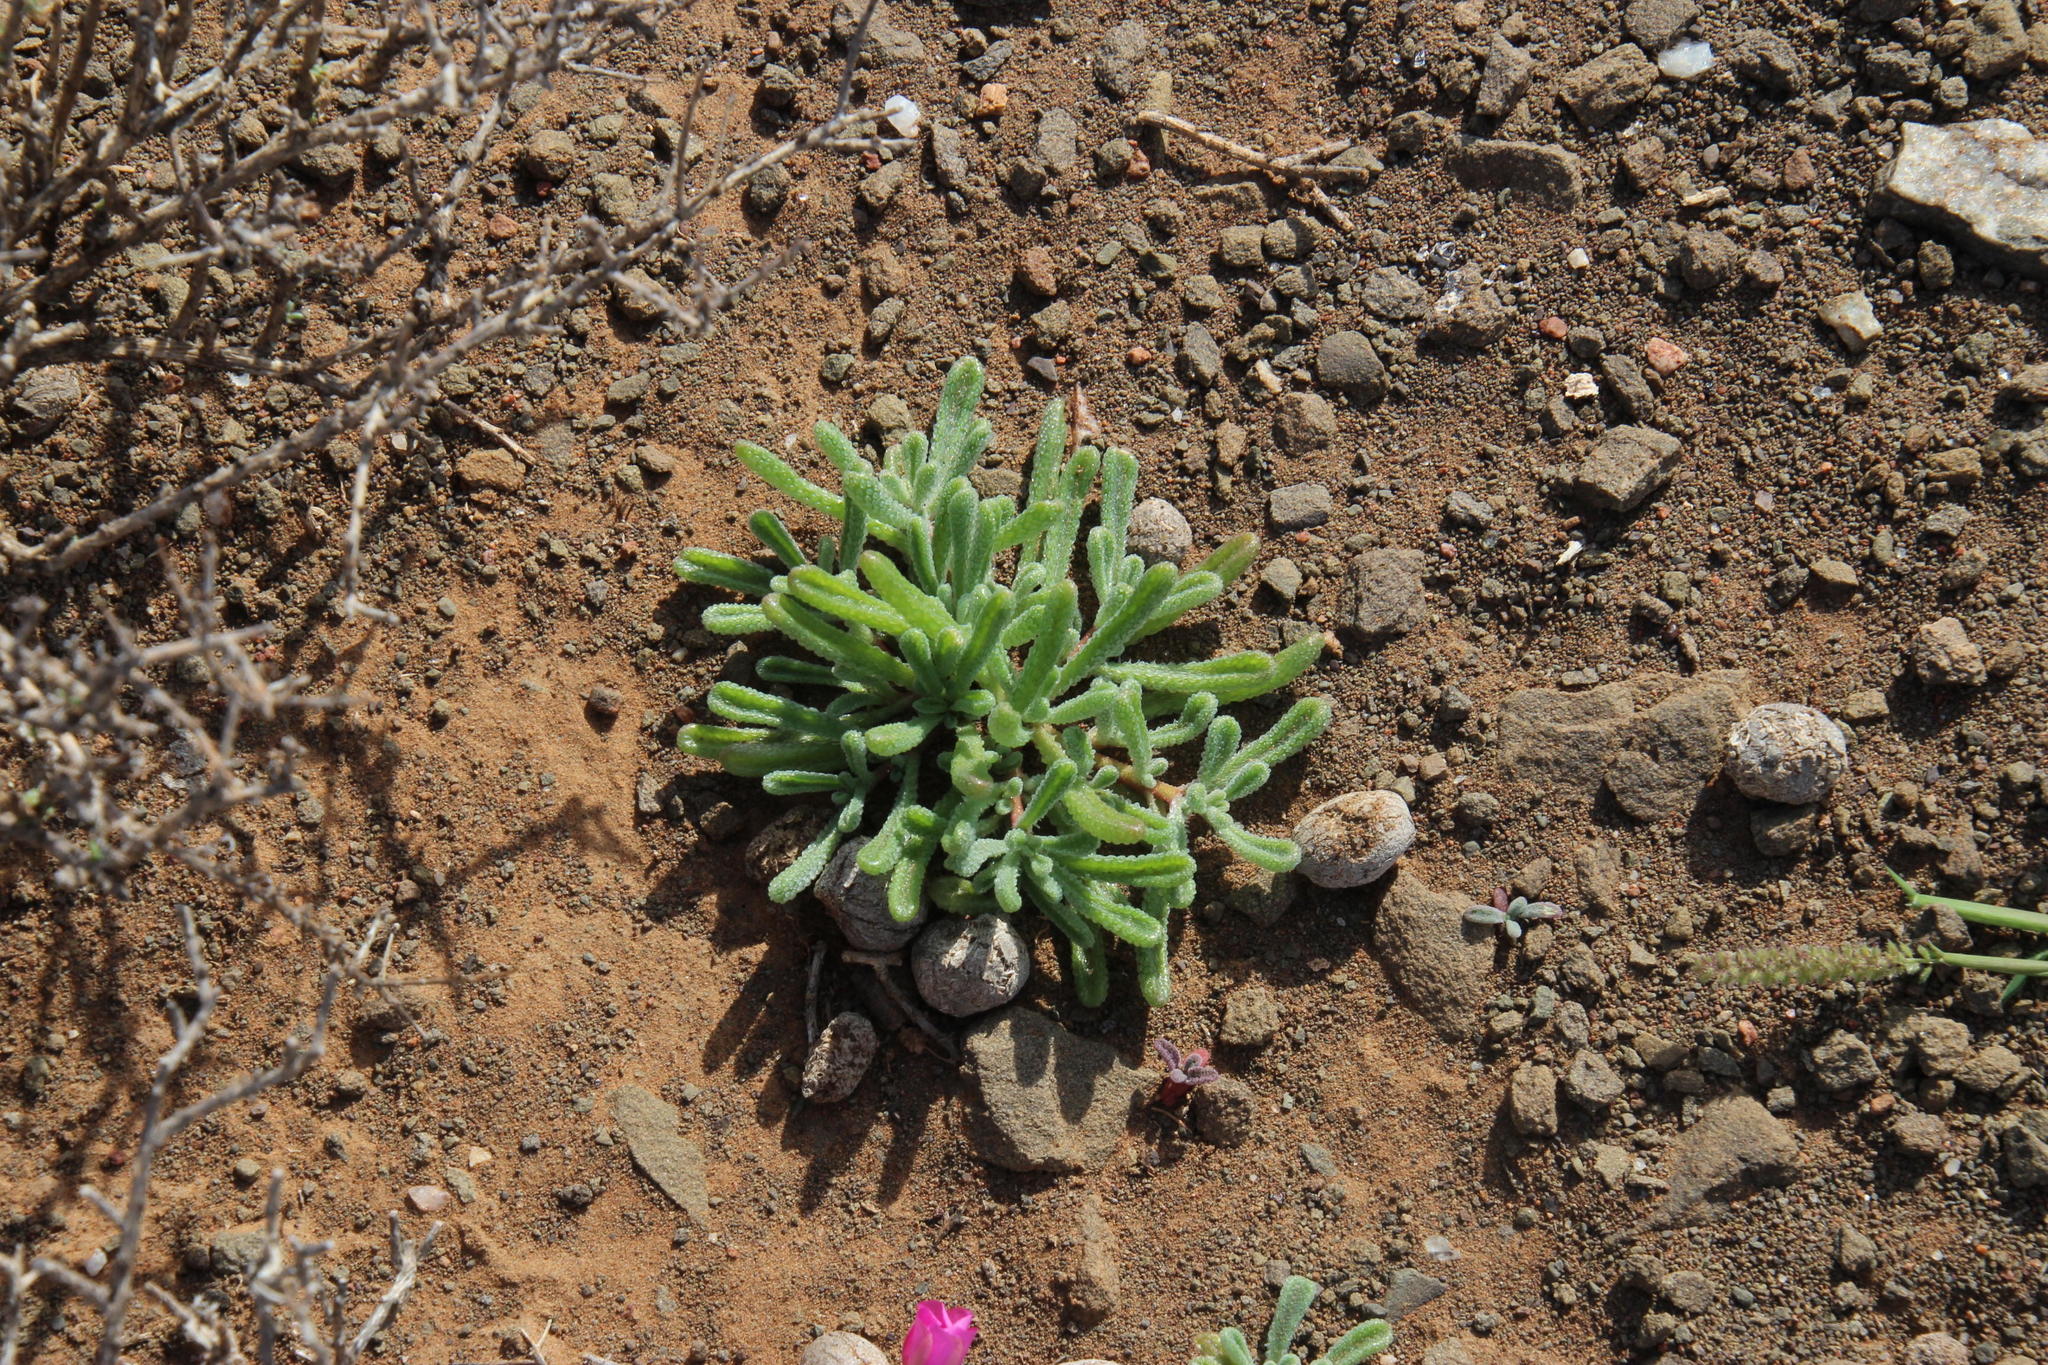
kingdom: Plantae
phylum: Tracheophyta
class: Magnoliopsida
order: Caryophyllales
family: Aizoaceae
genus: Mesembryanthemum
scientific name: Mesembryanthemum nodiflorum
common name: Slenderleaf iceplant
